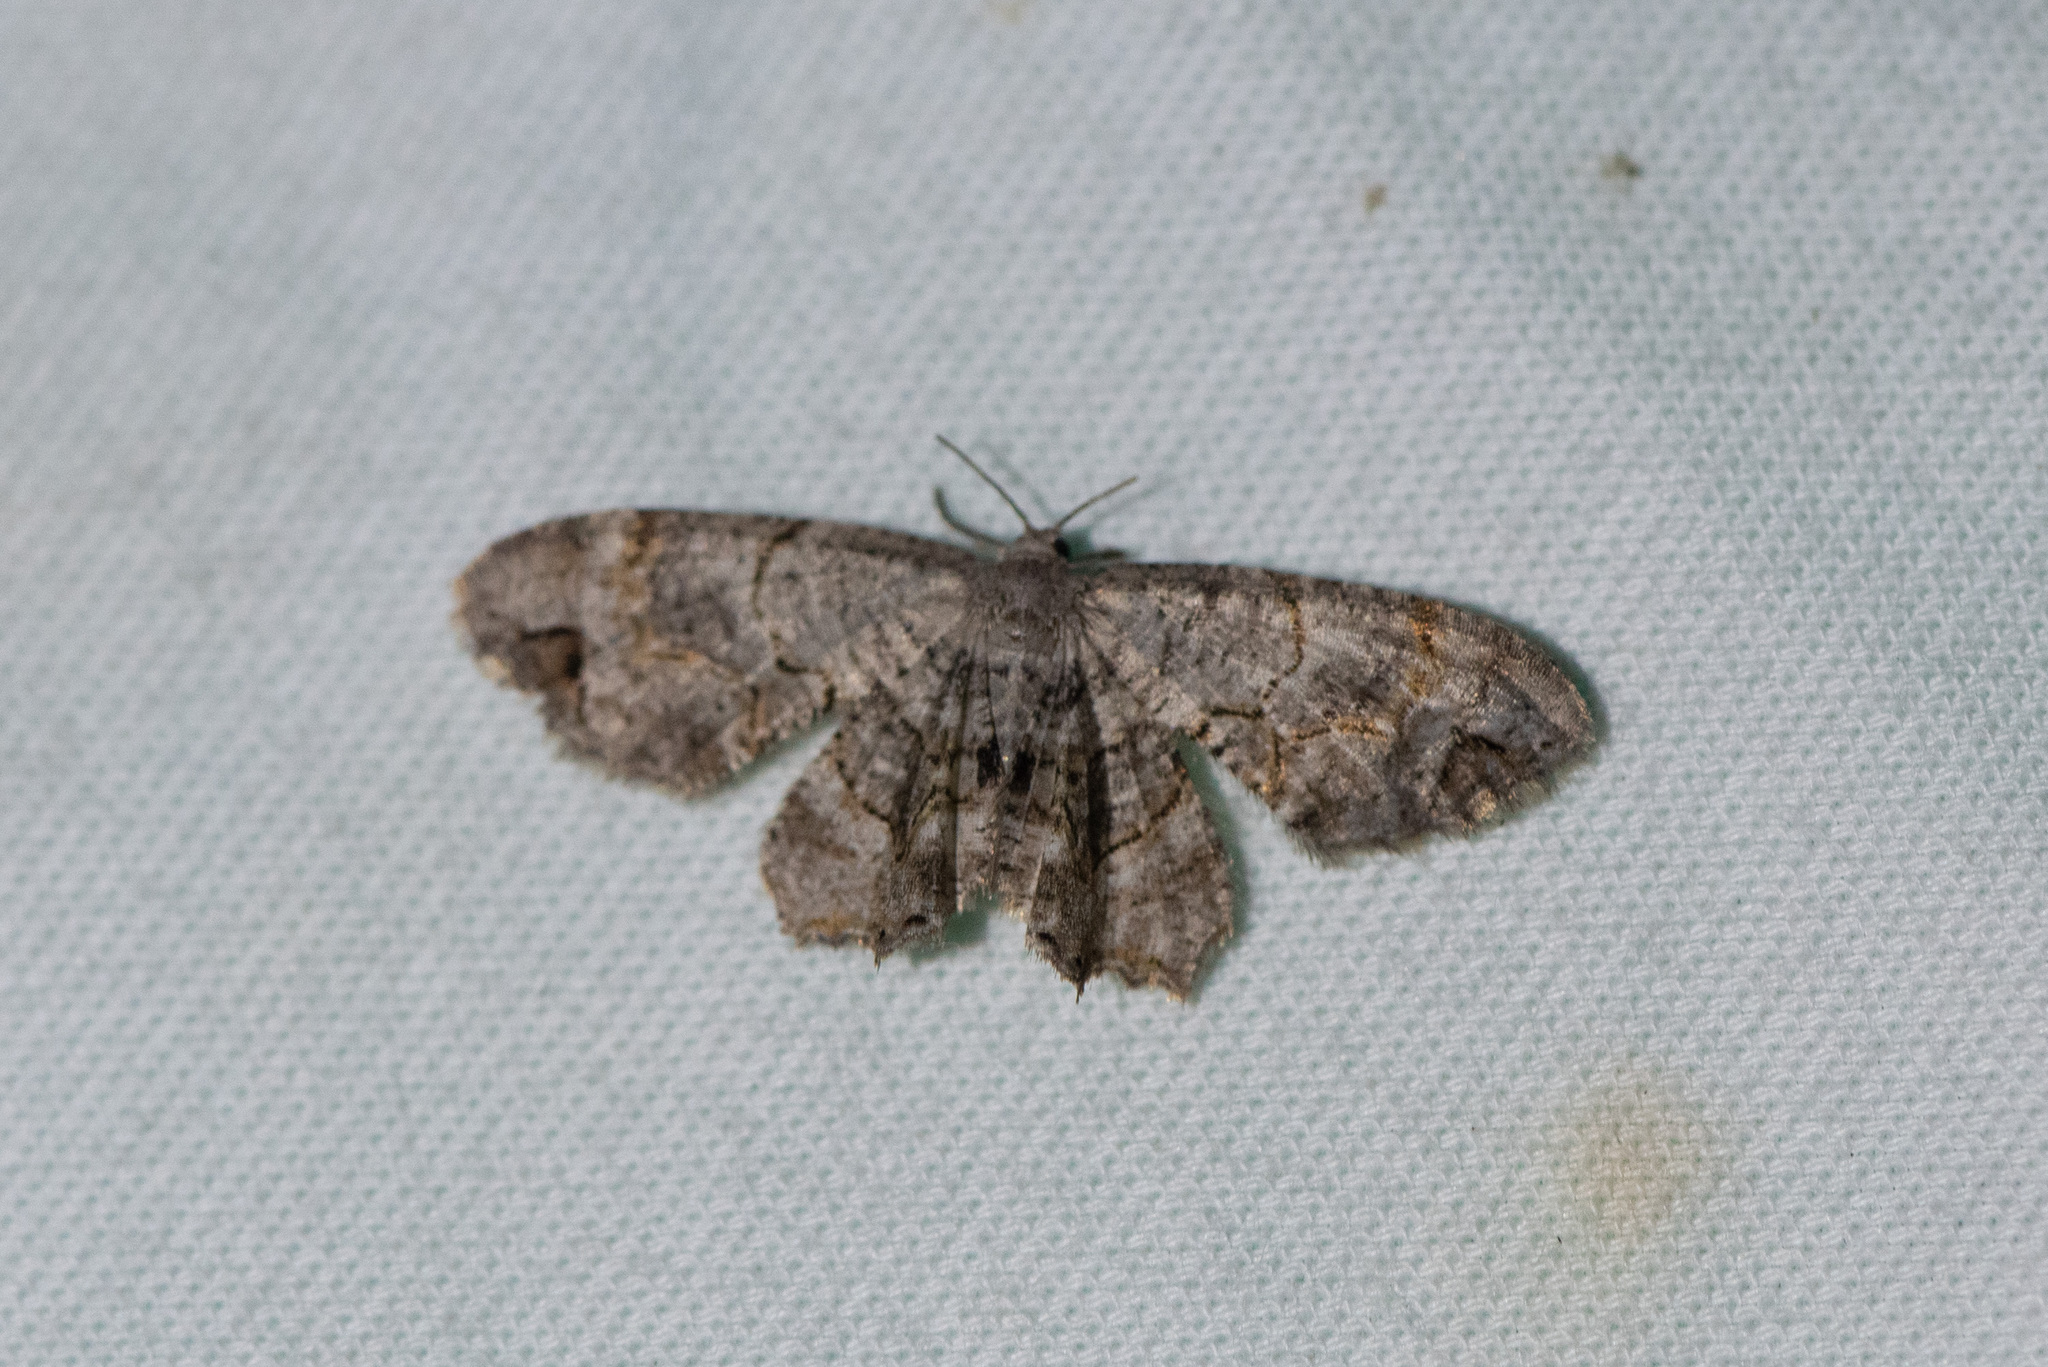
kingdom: Animalia
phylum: Arthropoda
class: Insecta
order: Lepidoptera
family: Uraniidae
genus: Epiplema
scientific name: Epiplema Callizzia amorata
